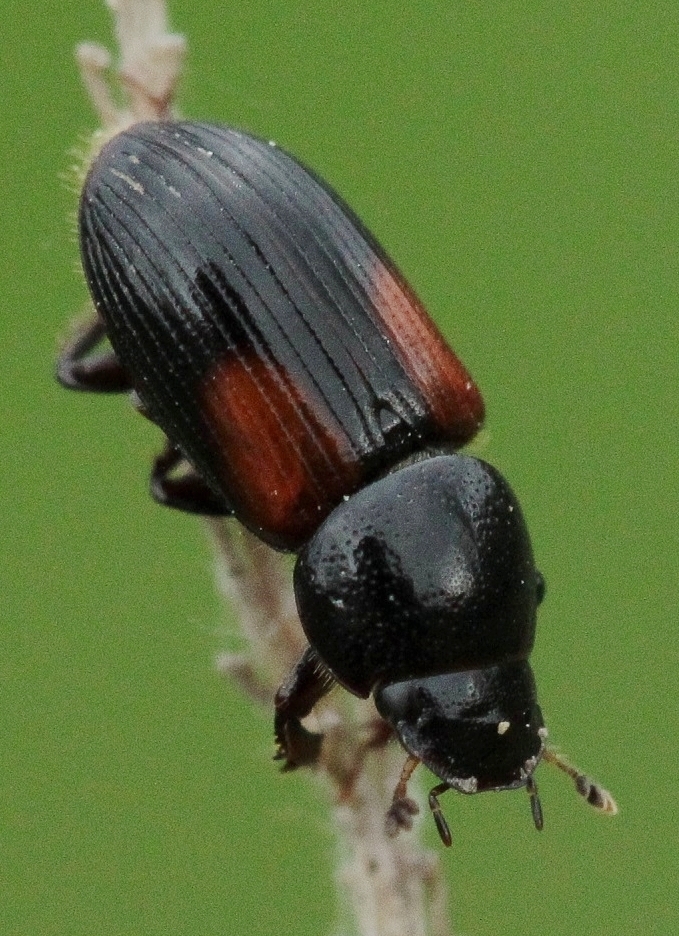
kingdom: Animalia
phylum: Arthropoda
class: Insecta
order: Coleoptera
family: Scarabaeidae
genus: Nialus
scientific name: Nialus varians
